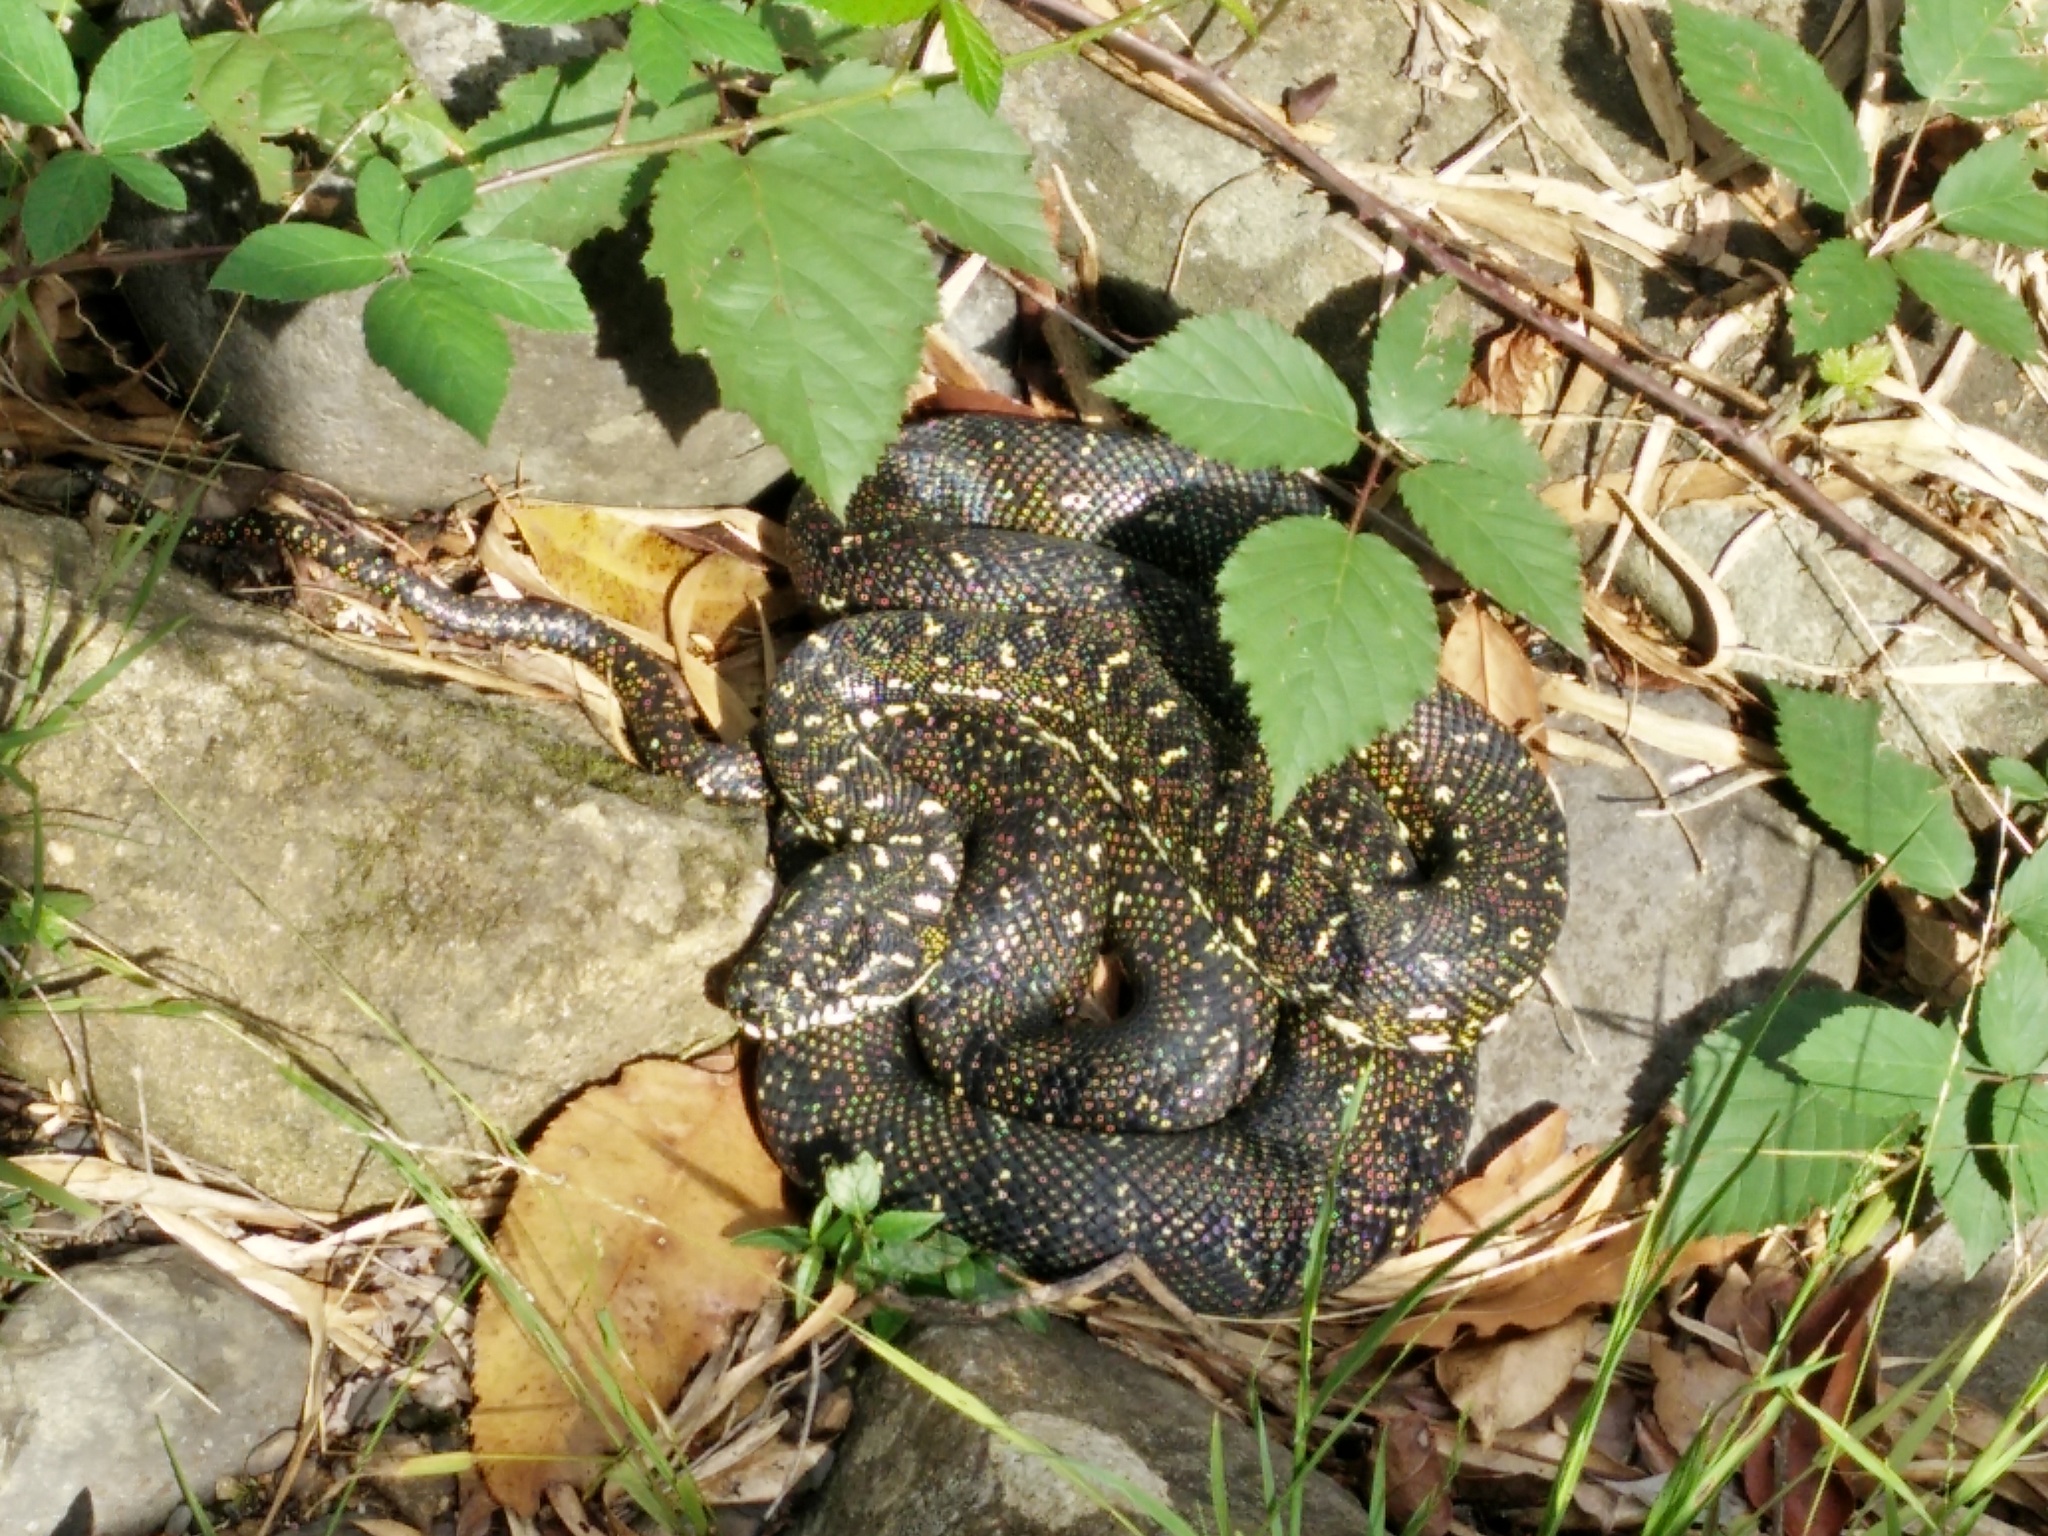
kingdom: Animalia
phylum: Chordata
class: Squamata
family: Pythonidae
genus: Morelia
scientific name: Morelia spilota
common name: Carpet python
